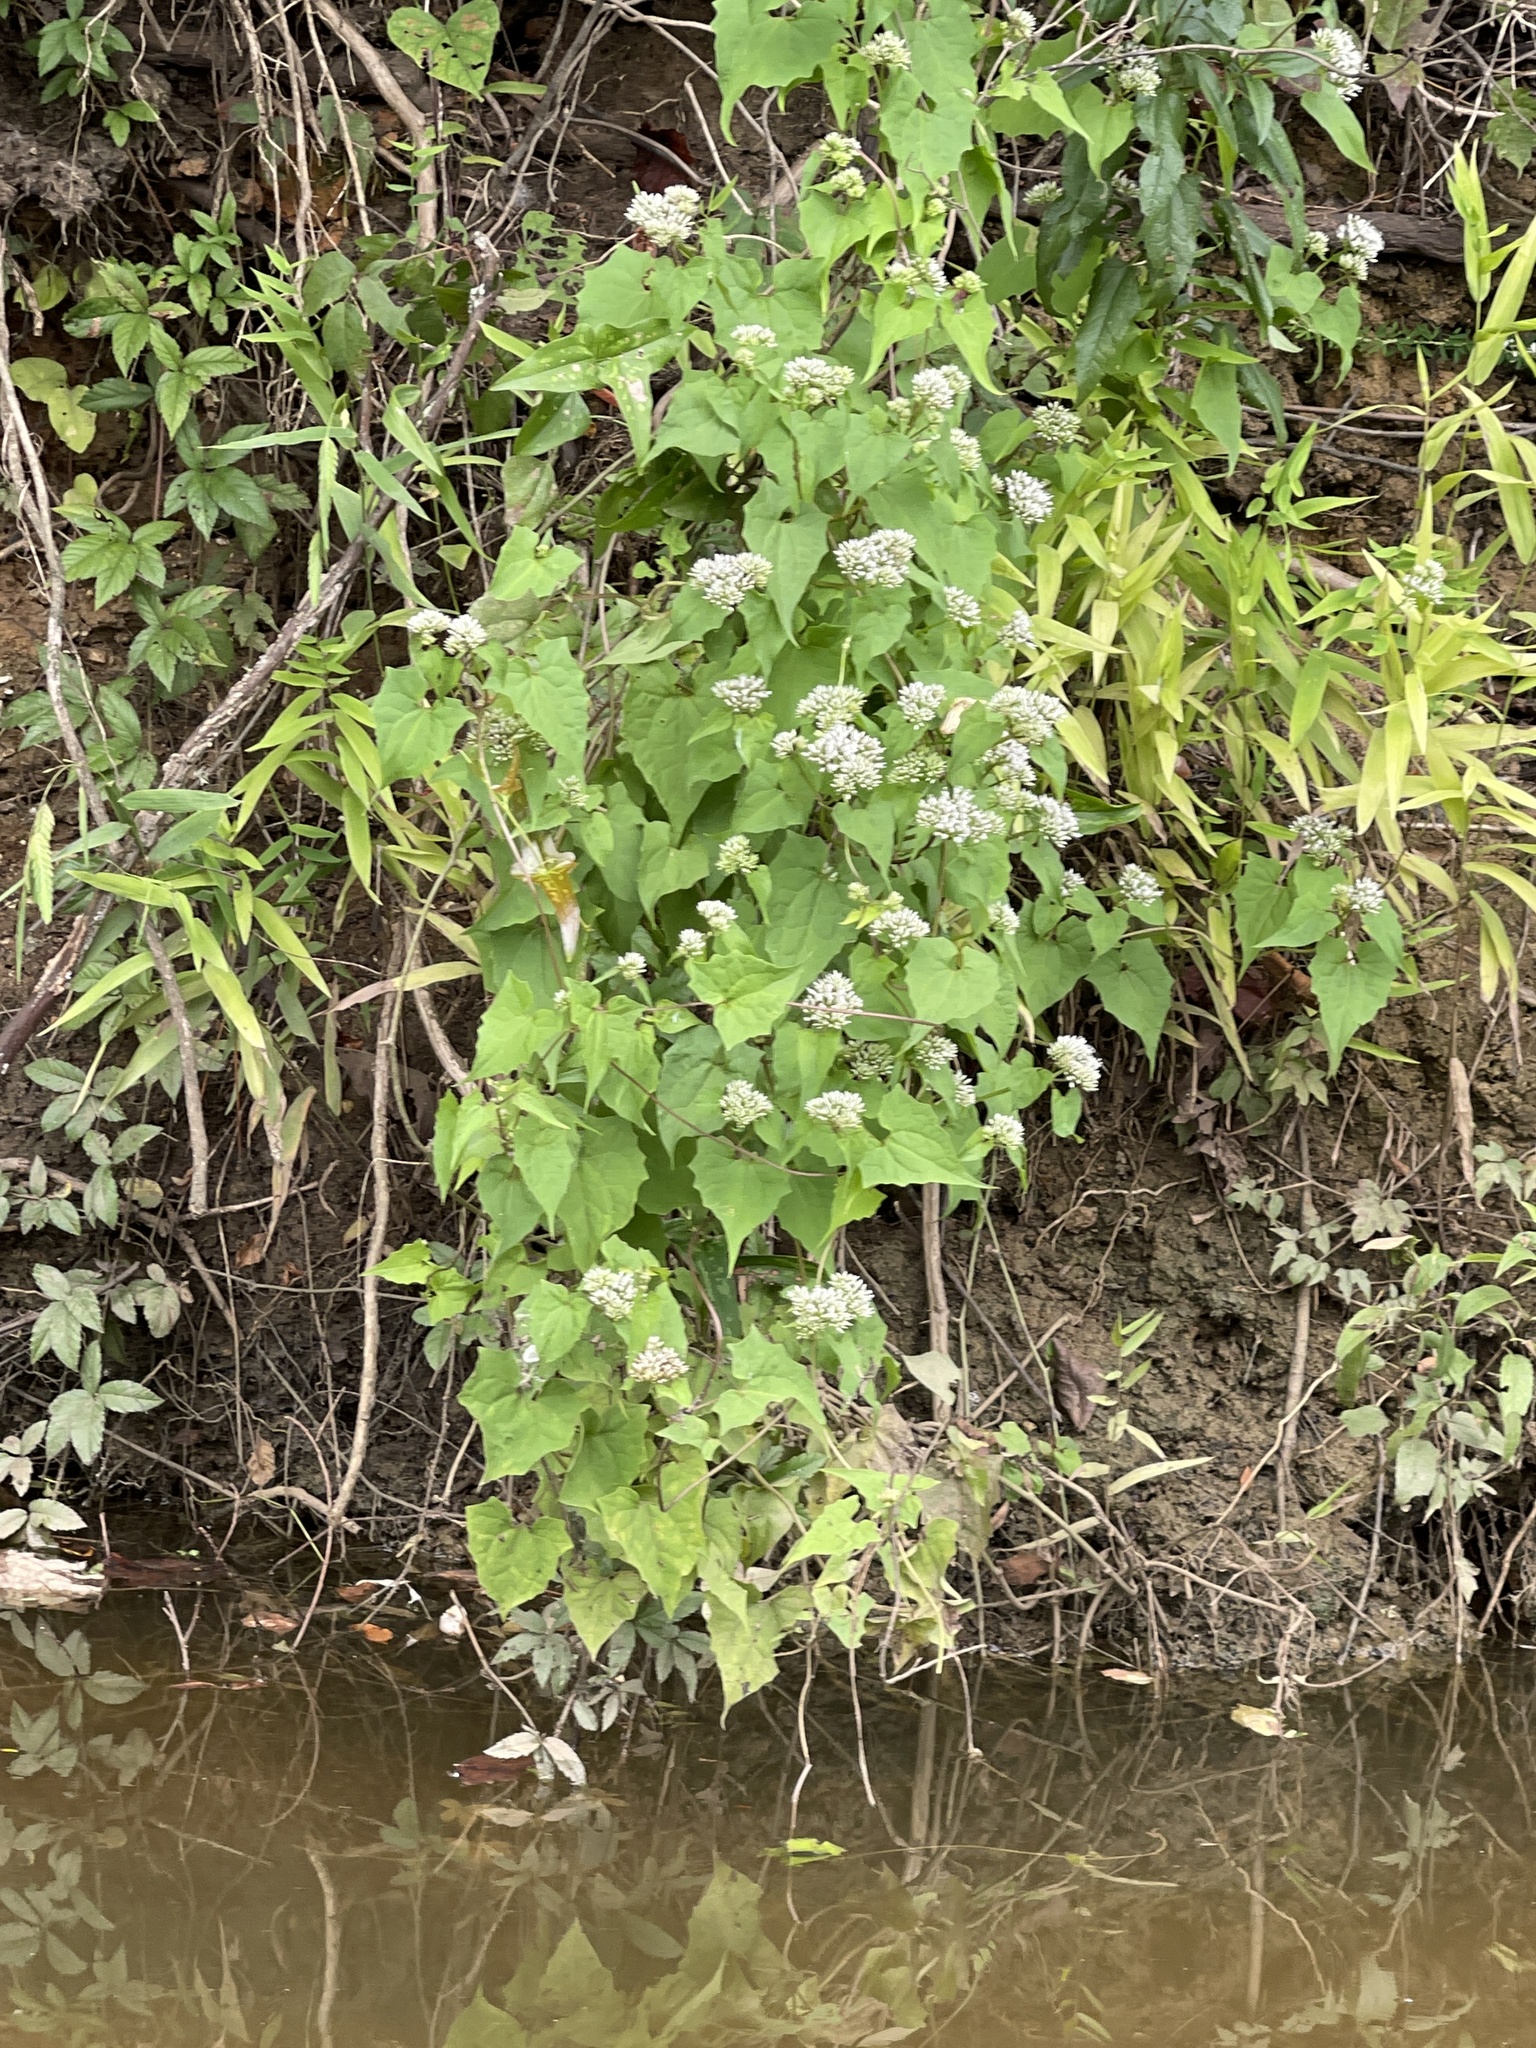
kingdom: Plantae
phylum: Tracheophyta
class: Magnoliopsida
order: Asterales
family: Asteraceae
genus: Mikania
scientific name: Mikania scandens
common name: Climbing hempvine
